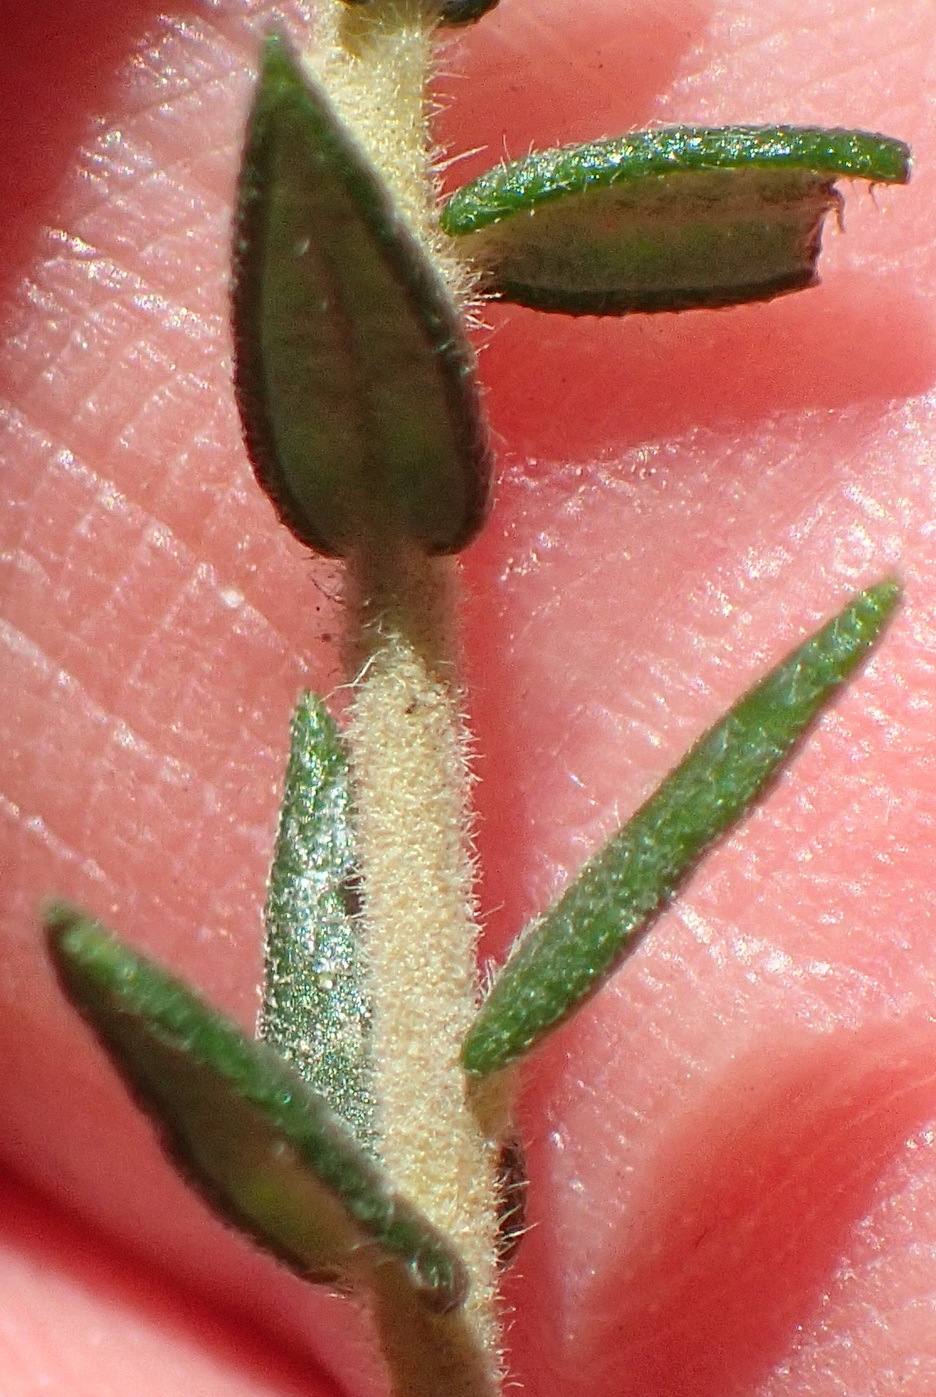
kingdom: Plantae
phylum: Tracheophyta
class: Magnoliopsida
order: Rosales
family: Rhamnaceae
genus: Phylica
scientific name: Phylica purpurea
